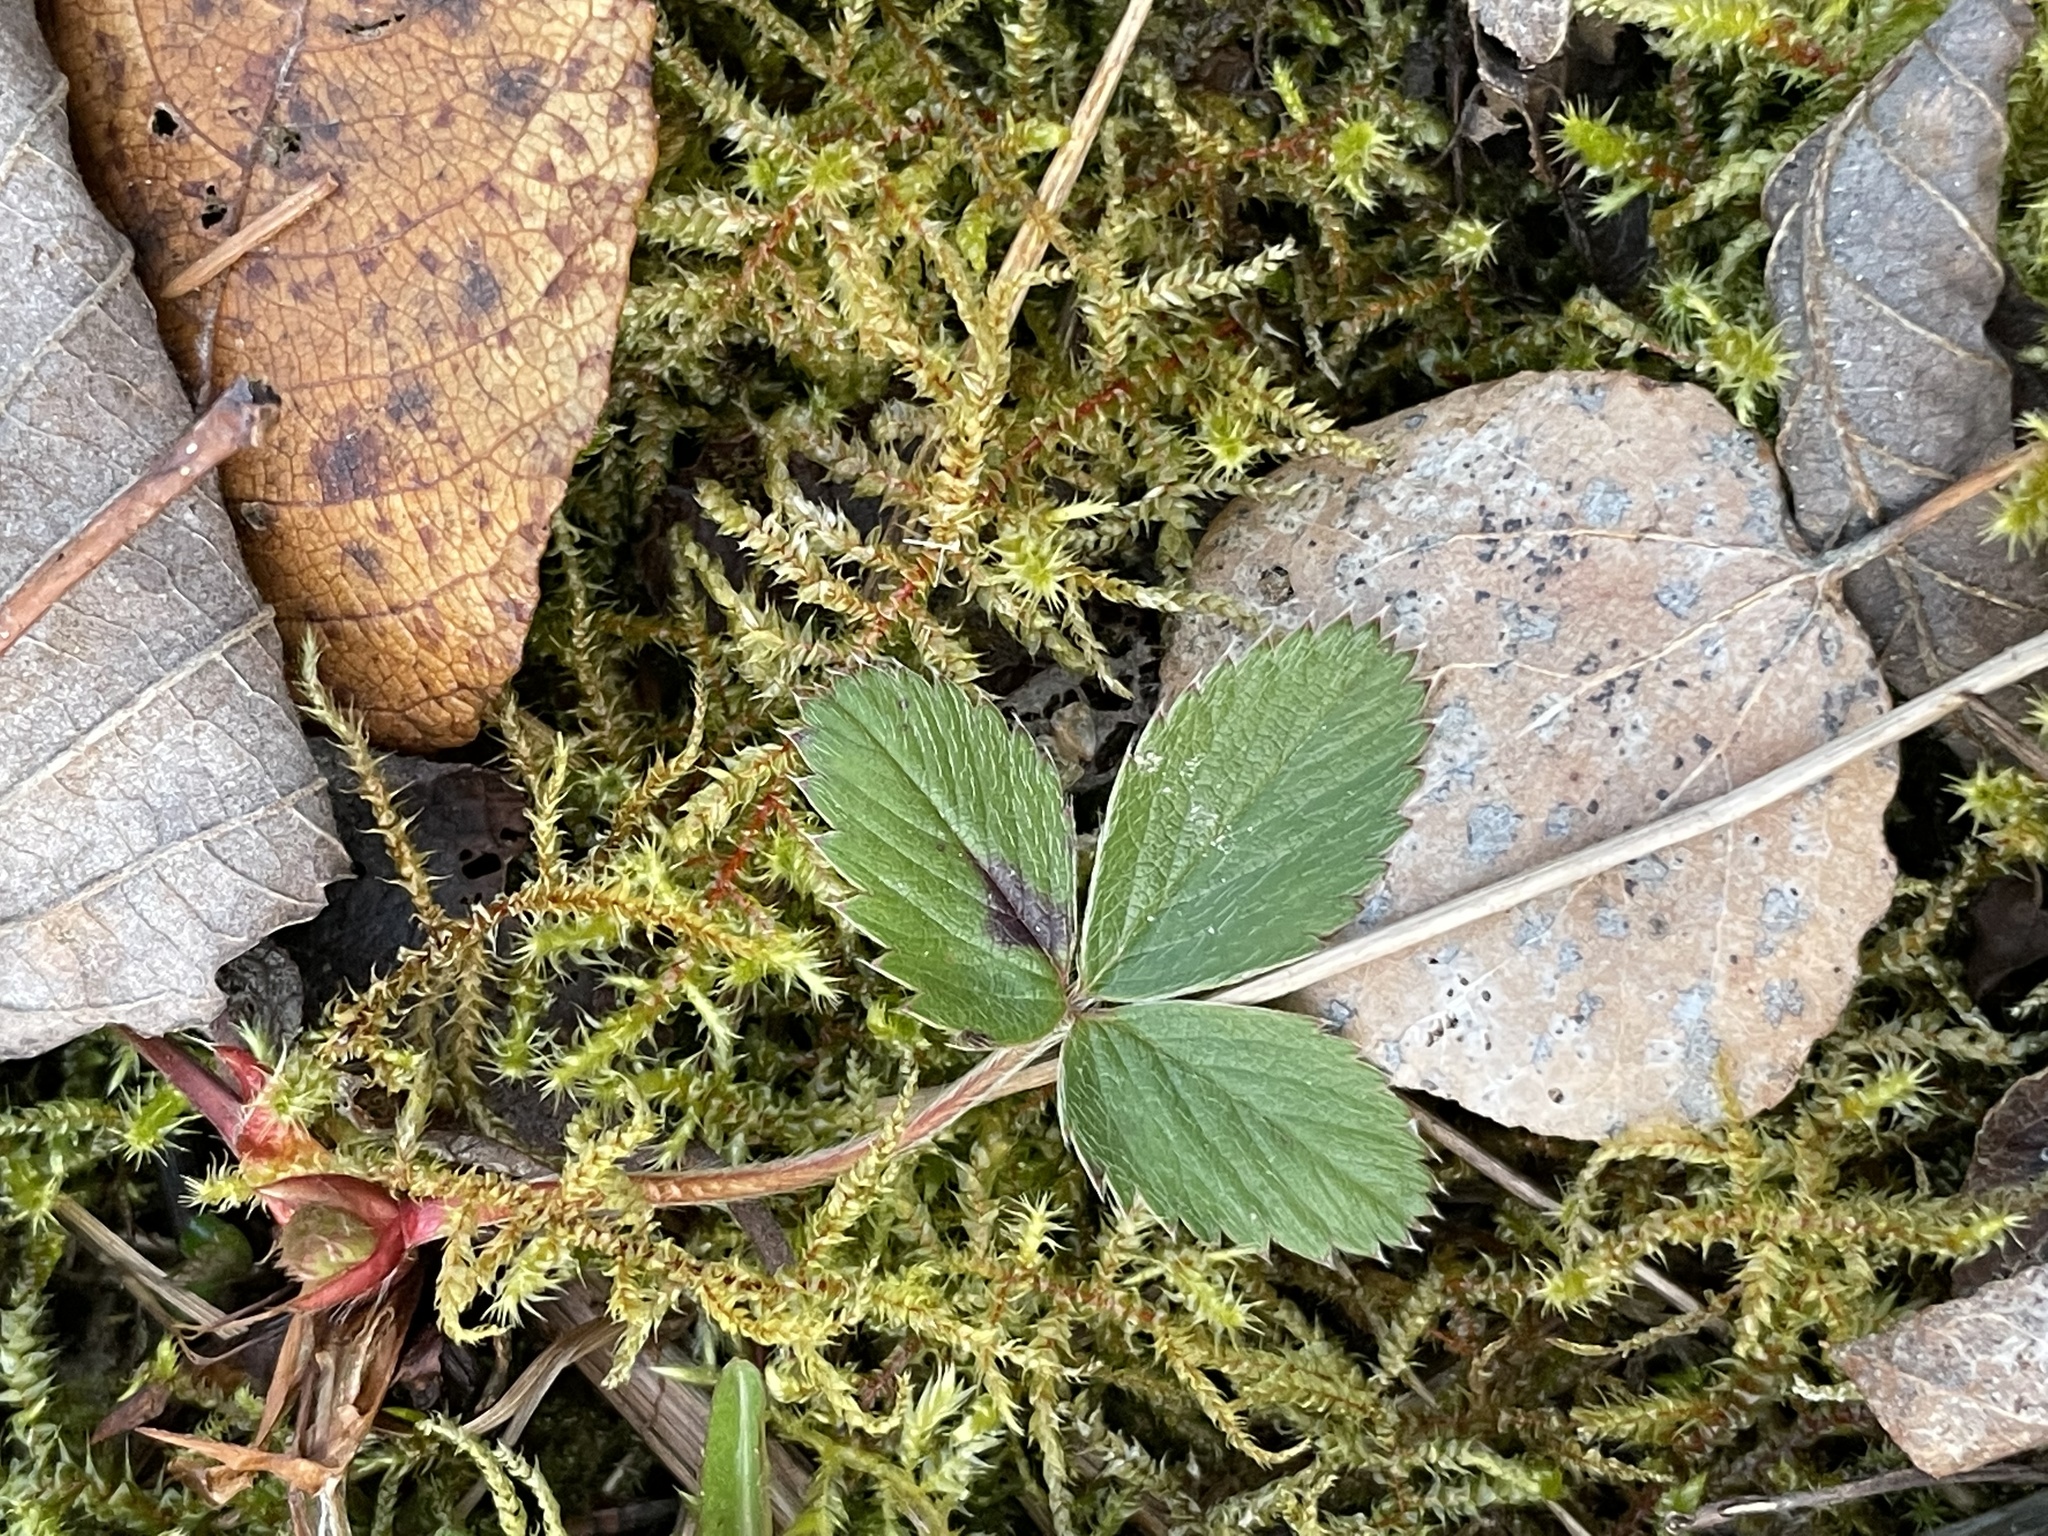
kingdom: Plantae
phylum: Tracheophyta
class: Magnoliopsida
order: Rosales
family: Rosaceae
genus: Fragaria
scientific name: Fragaria virginiana
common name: Thickleaved wild strawberry
